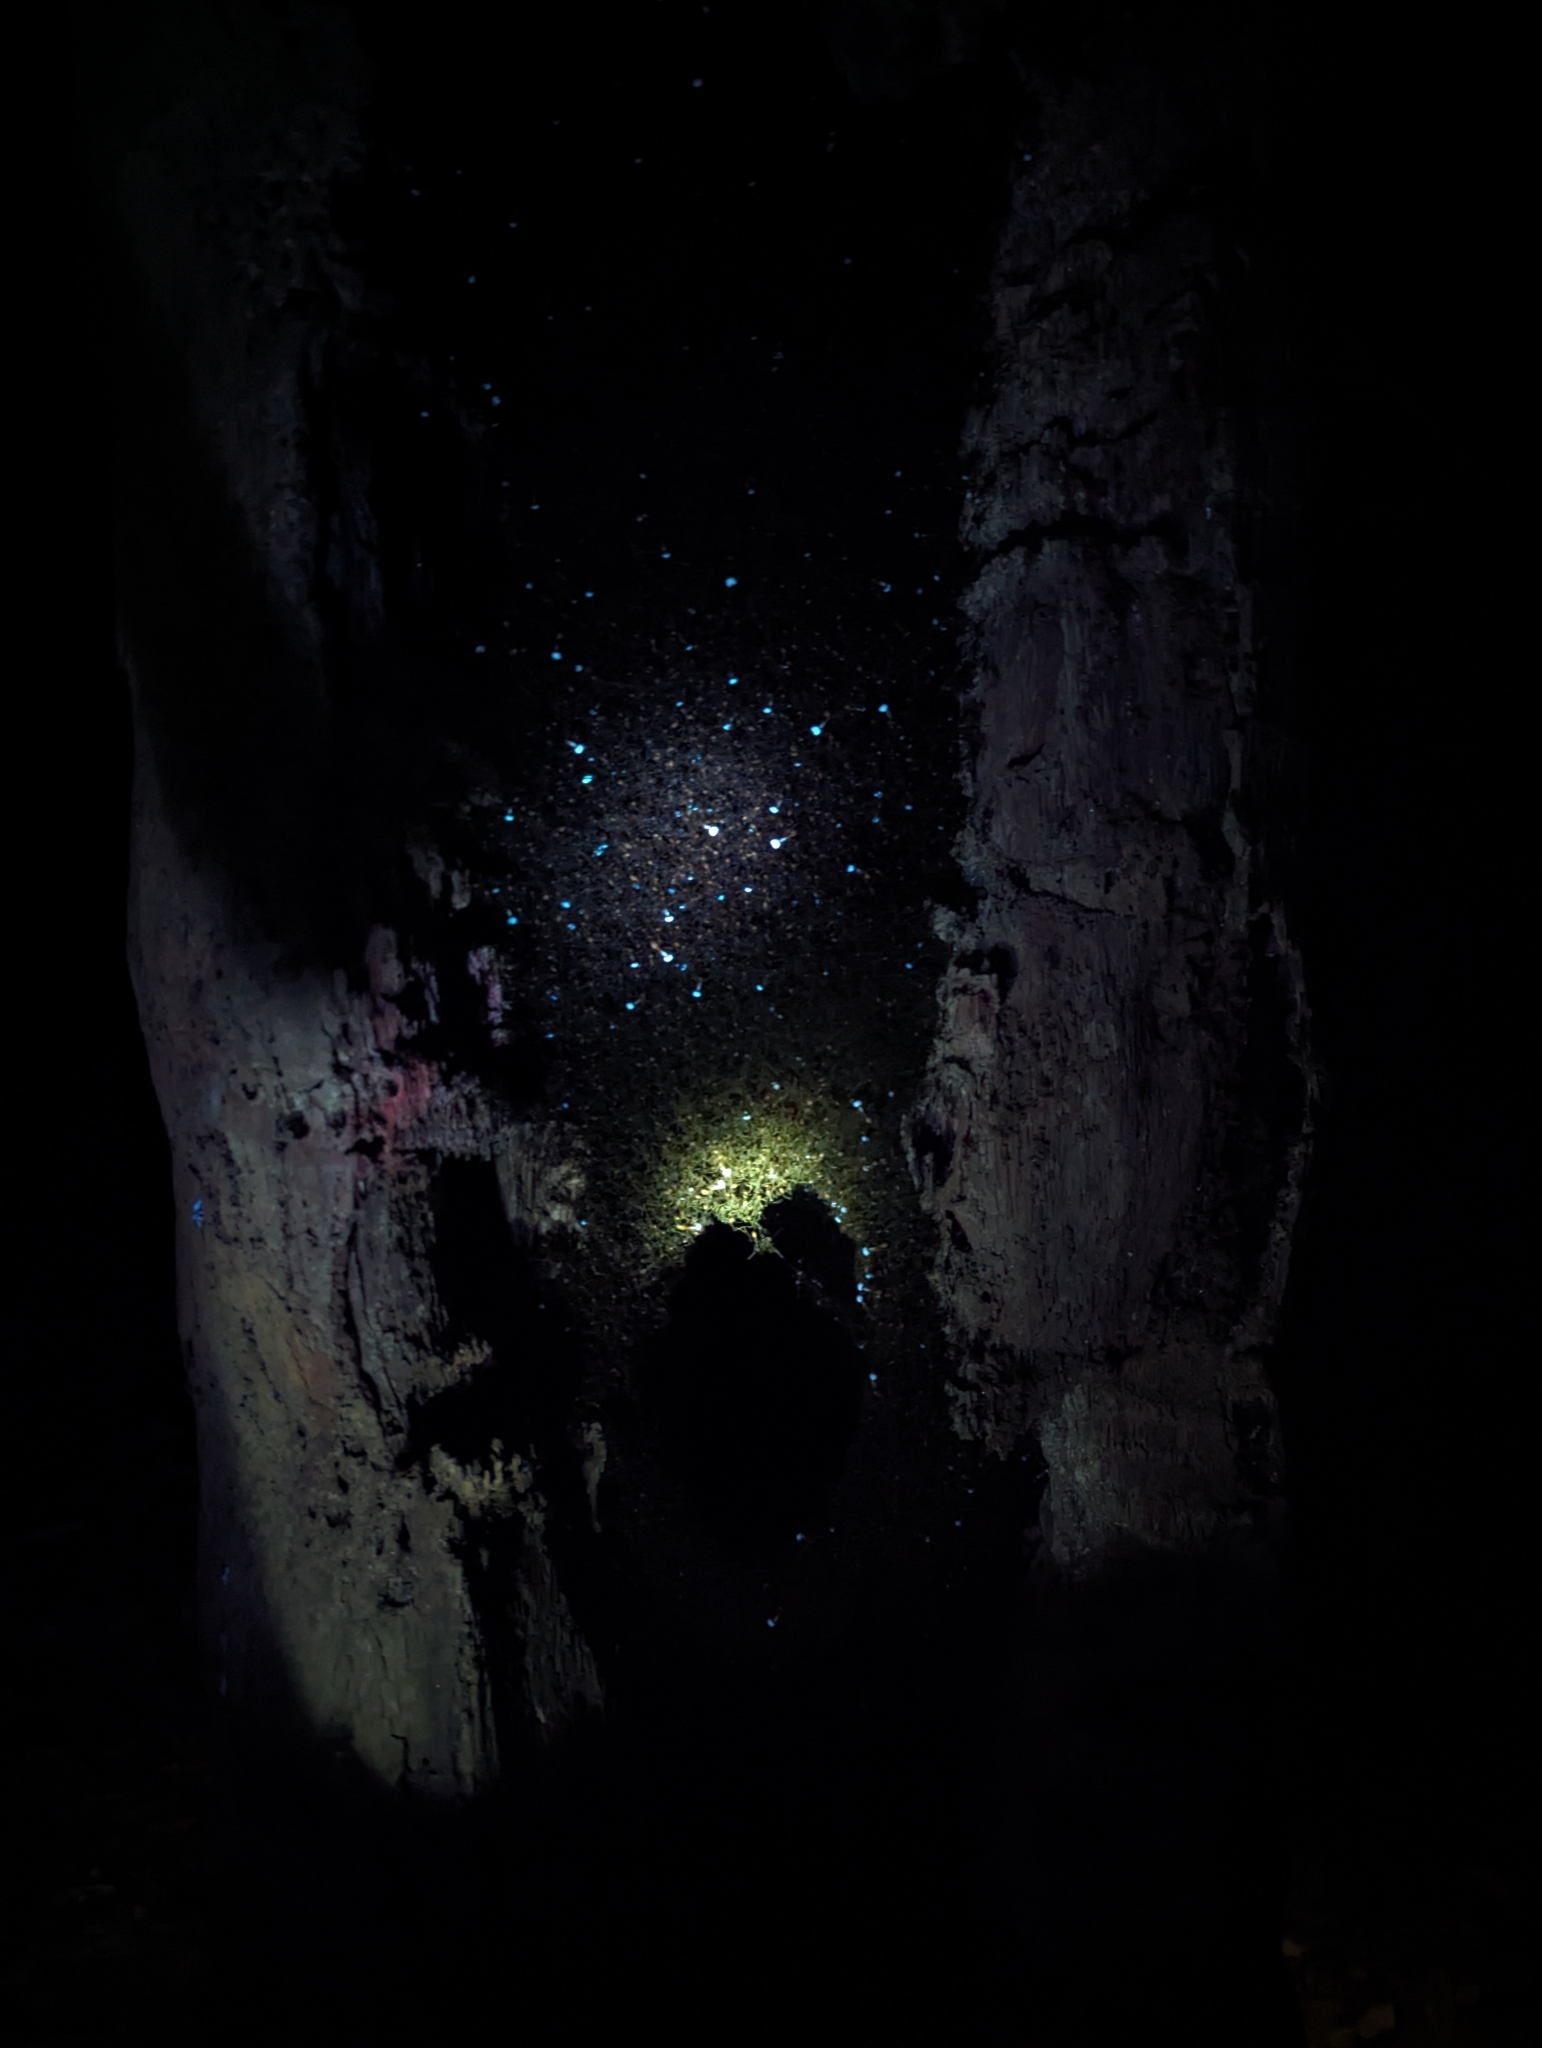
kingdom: Animalia
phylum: Arthropoda
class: Insecta
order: Hymenoptera
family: Formicidae
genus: Eciton
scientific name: Eciton burchellii
